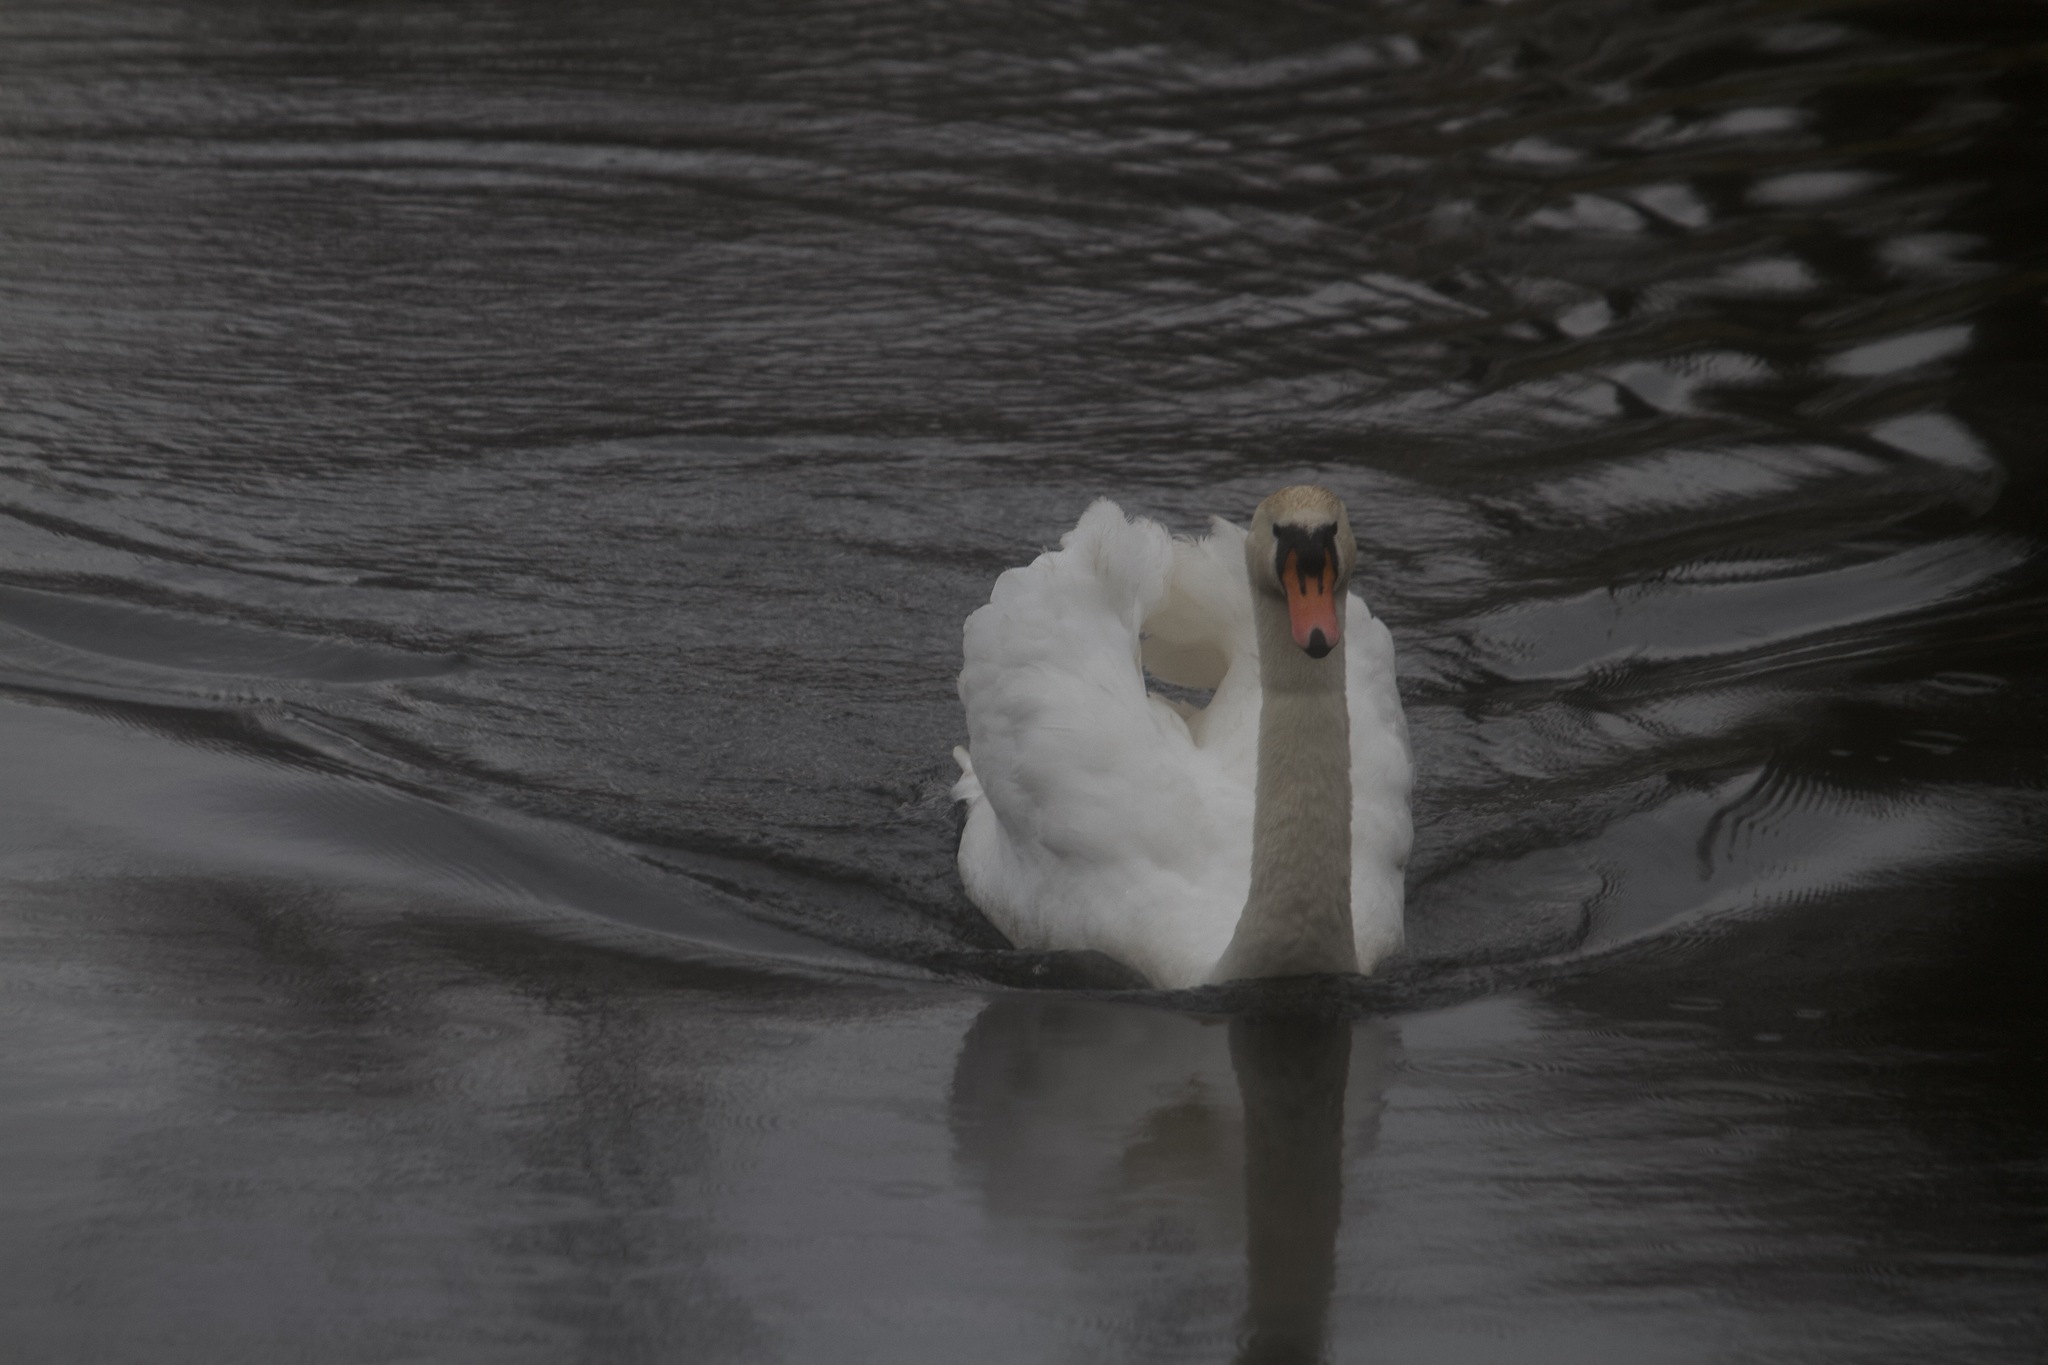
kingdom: Animalia
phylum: Chordata
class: Aves
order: Anseriformes
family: Anatidae
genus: Cygnus
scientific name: Cygnus olor
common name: Mute swan
